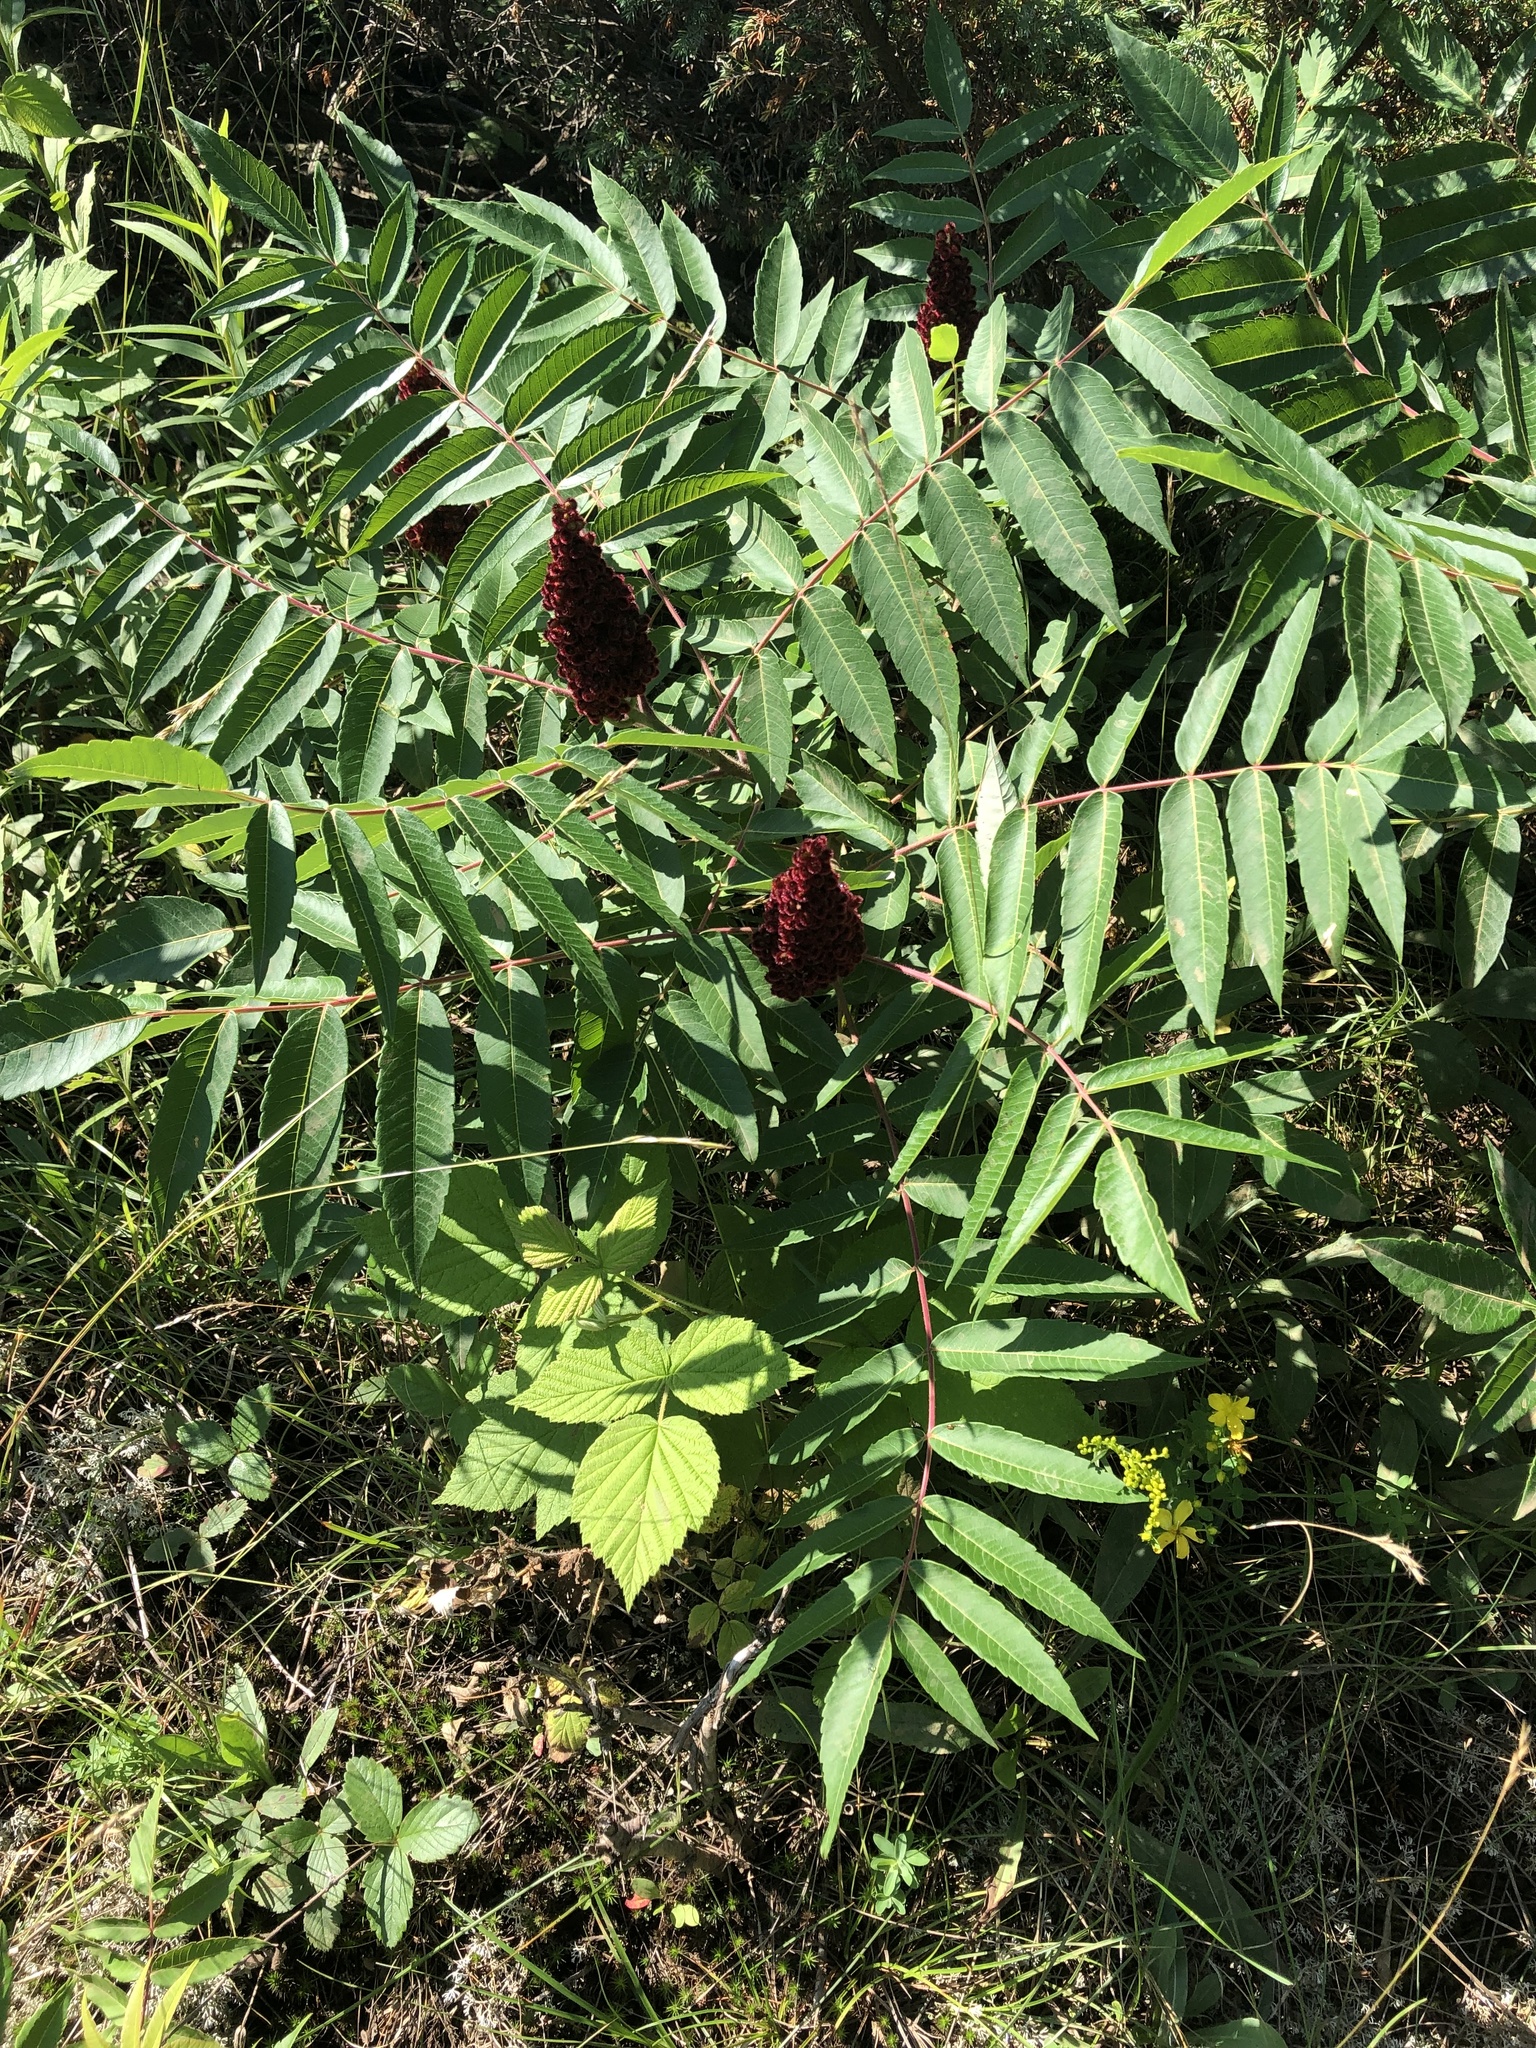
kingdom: Plantae
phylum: Tracheophyta
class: Magnoliopsida
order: Sapindales
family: Anacardiaceae
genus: Rhus
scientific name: Rhus typhina
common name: Staghorn sumac
